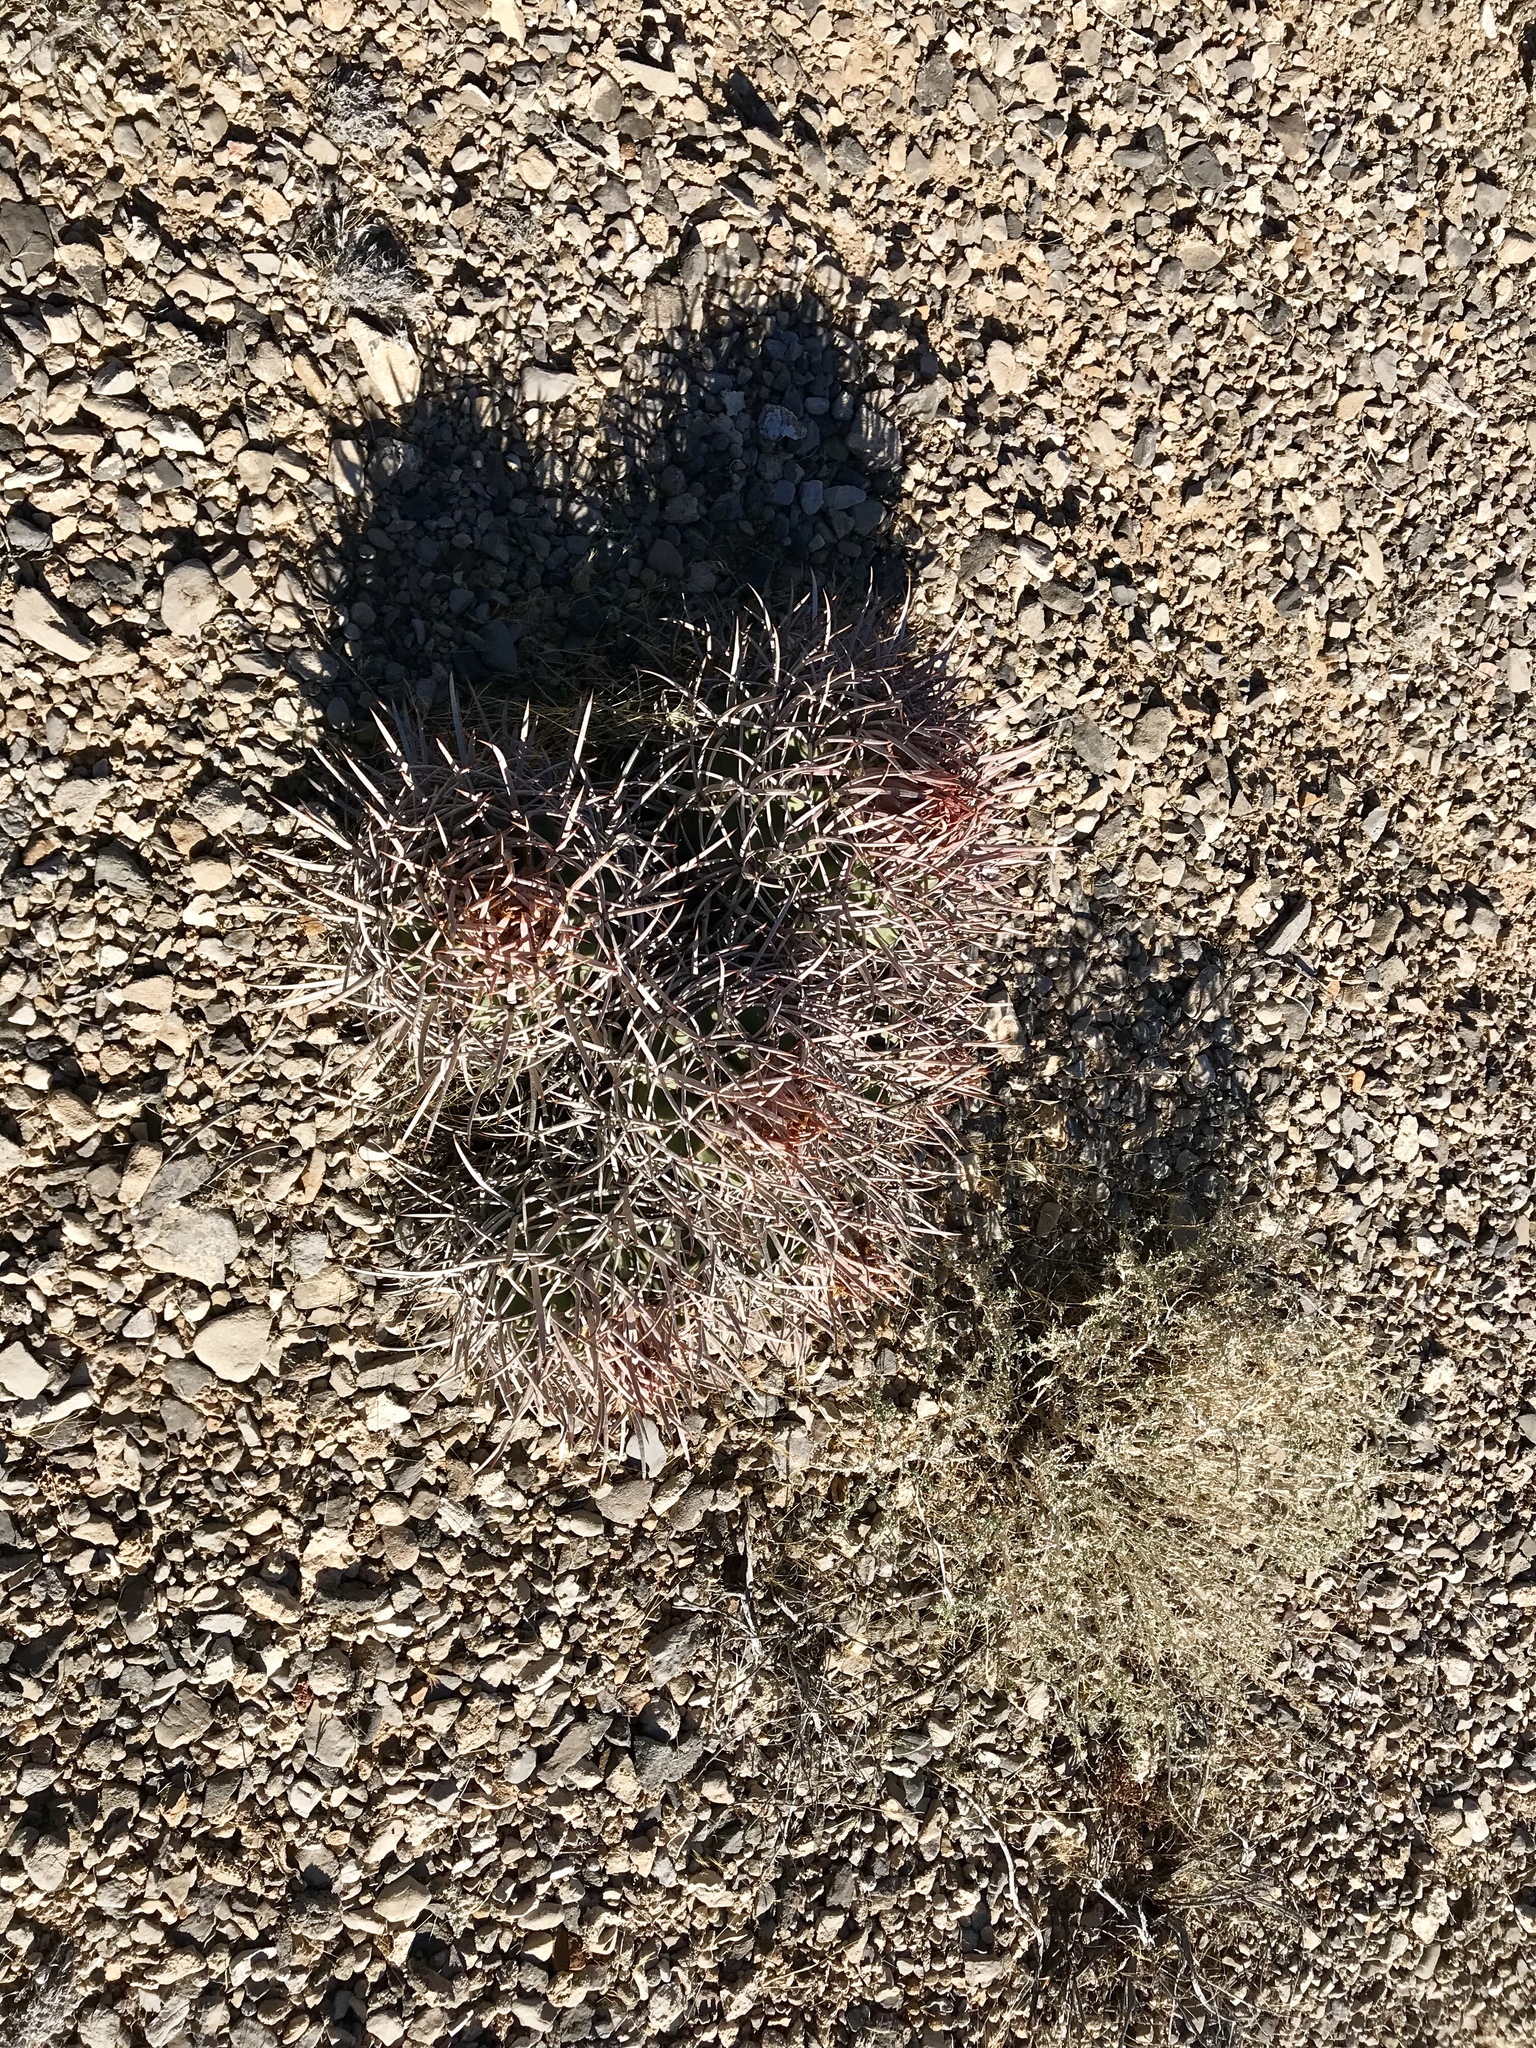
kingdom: Plantae
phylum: Tracheophyta
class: Magnoliopsida
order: Caryophyllales
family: Cactaceae
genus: Echinocactus
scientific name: Echinocactus polycephalus
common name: Cottontop cactus
